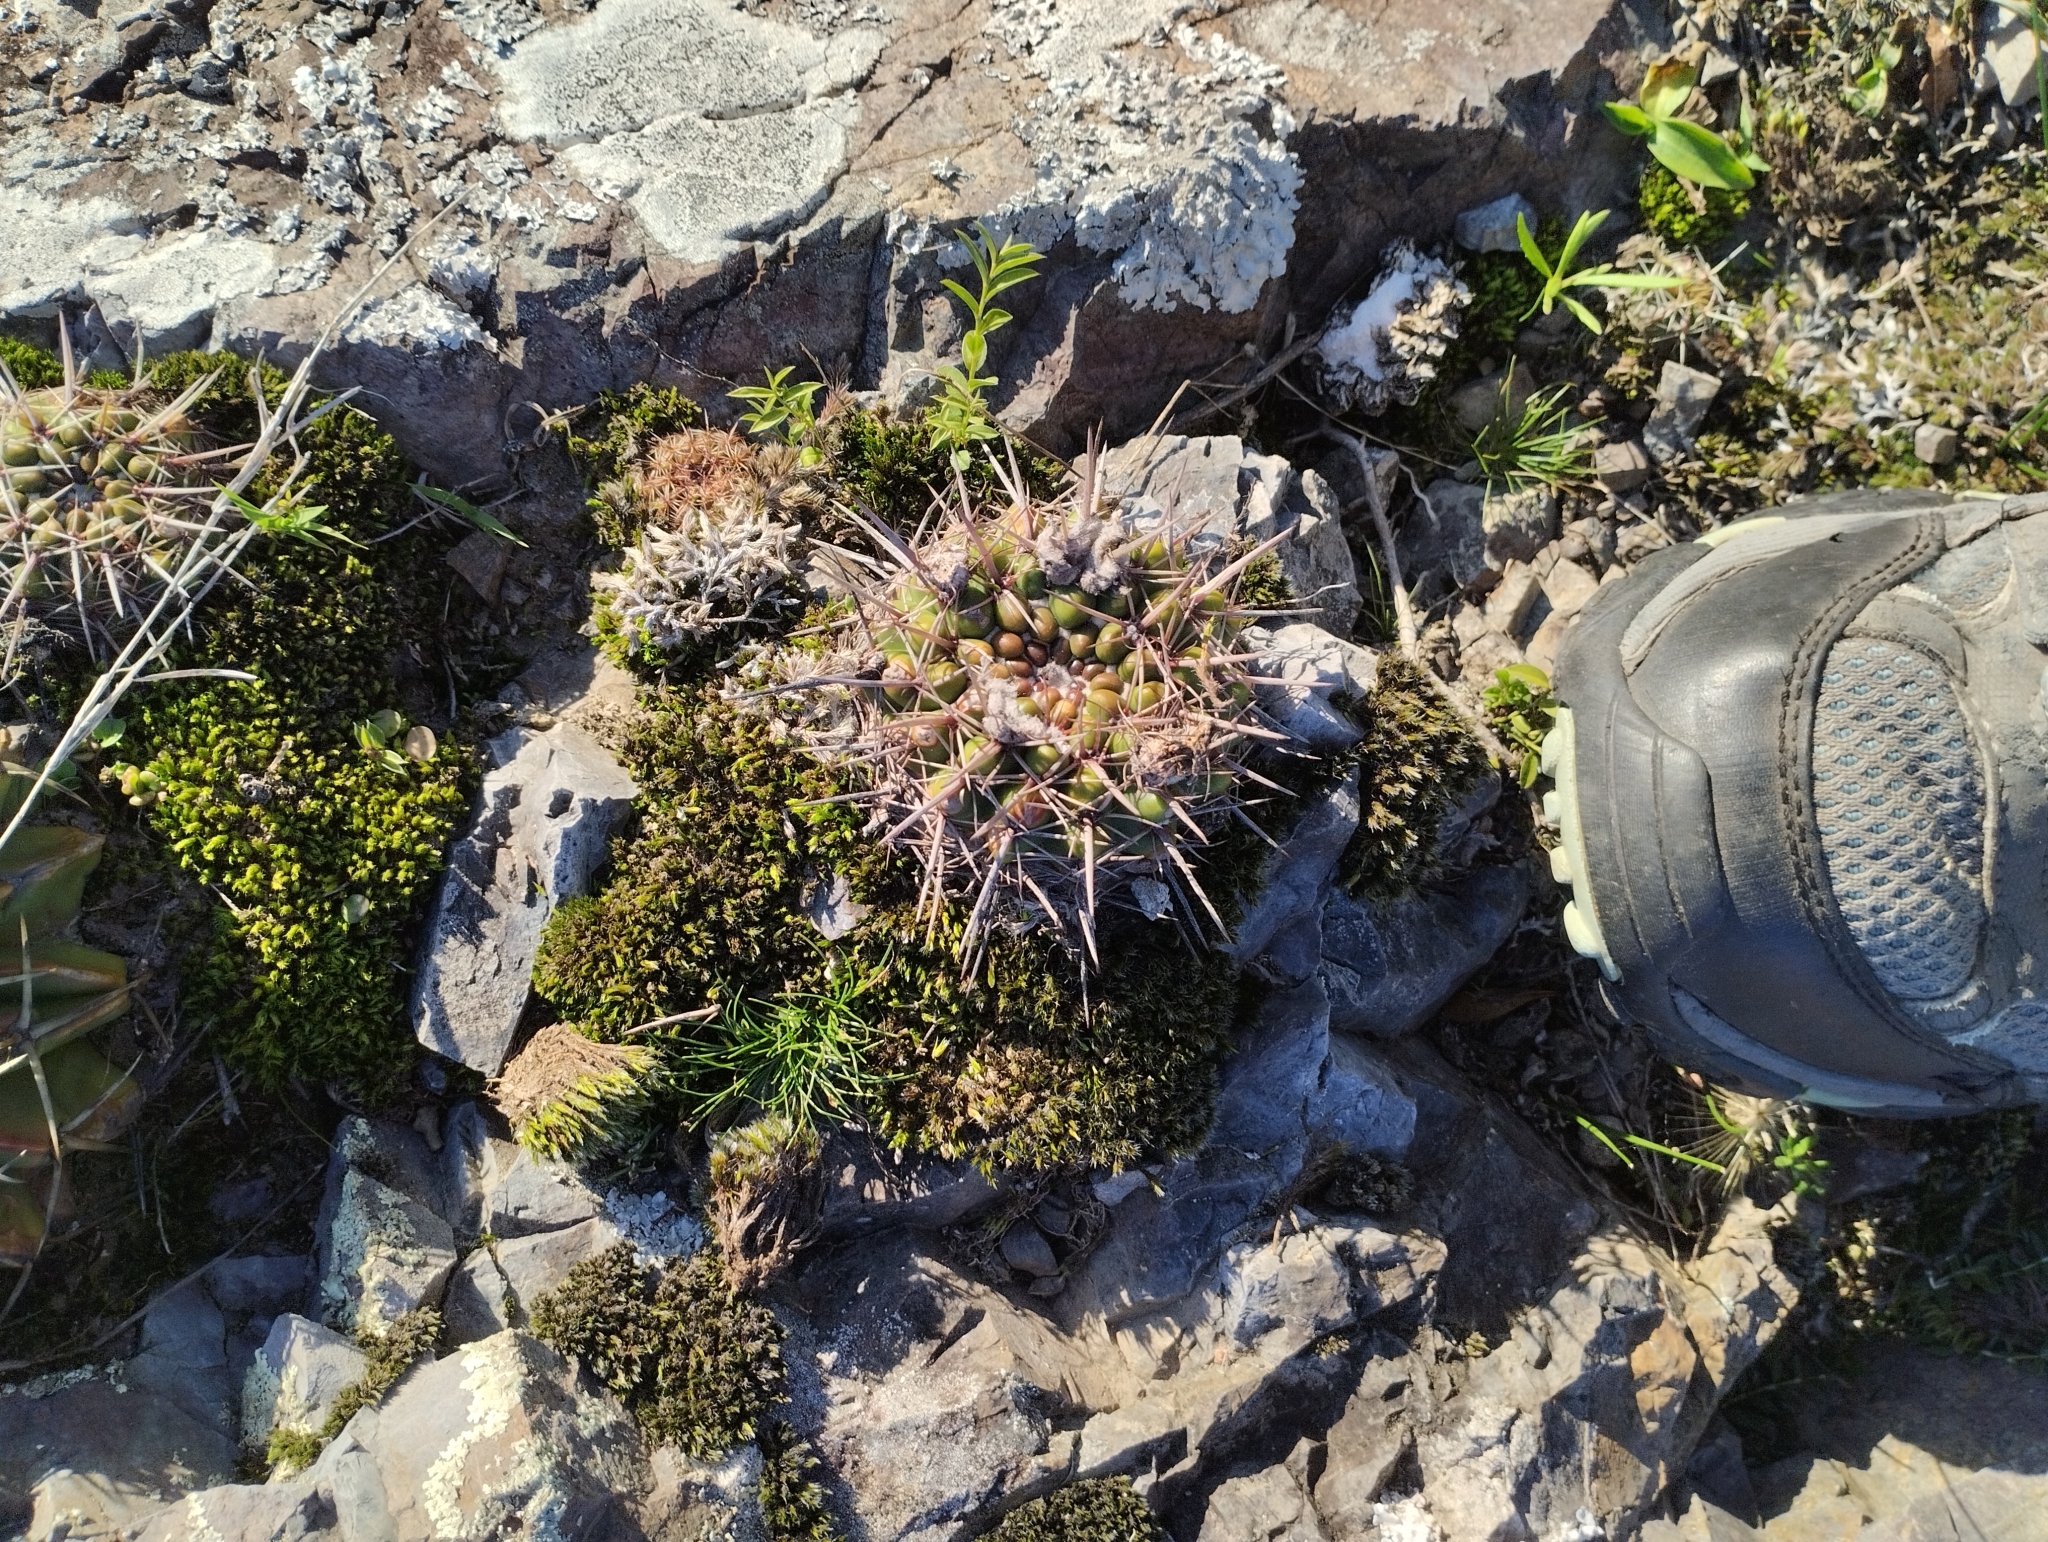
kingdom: Plantae
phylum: Tracheophyta
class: Magnoliopsida
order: Caryophyllales
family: Cactaceae
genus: Parodia
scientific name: Parodia mammulosa
